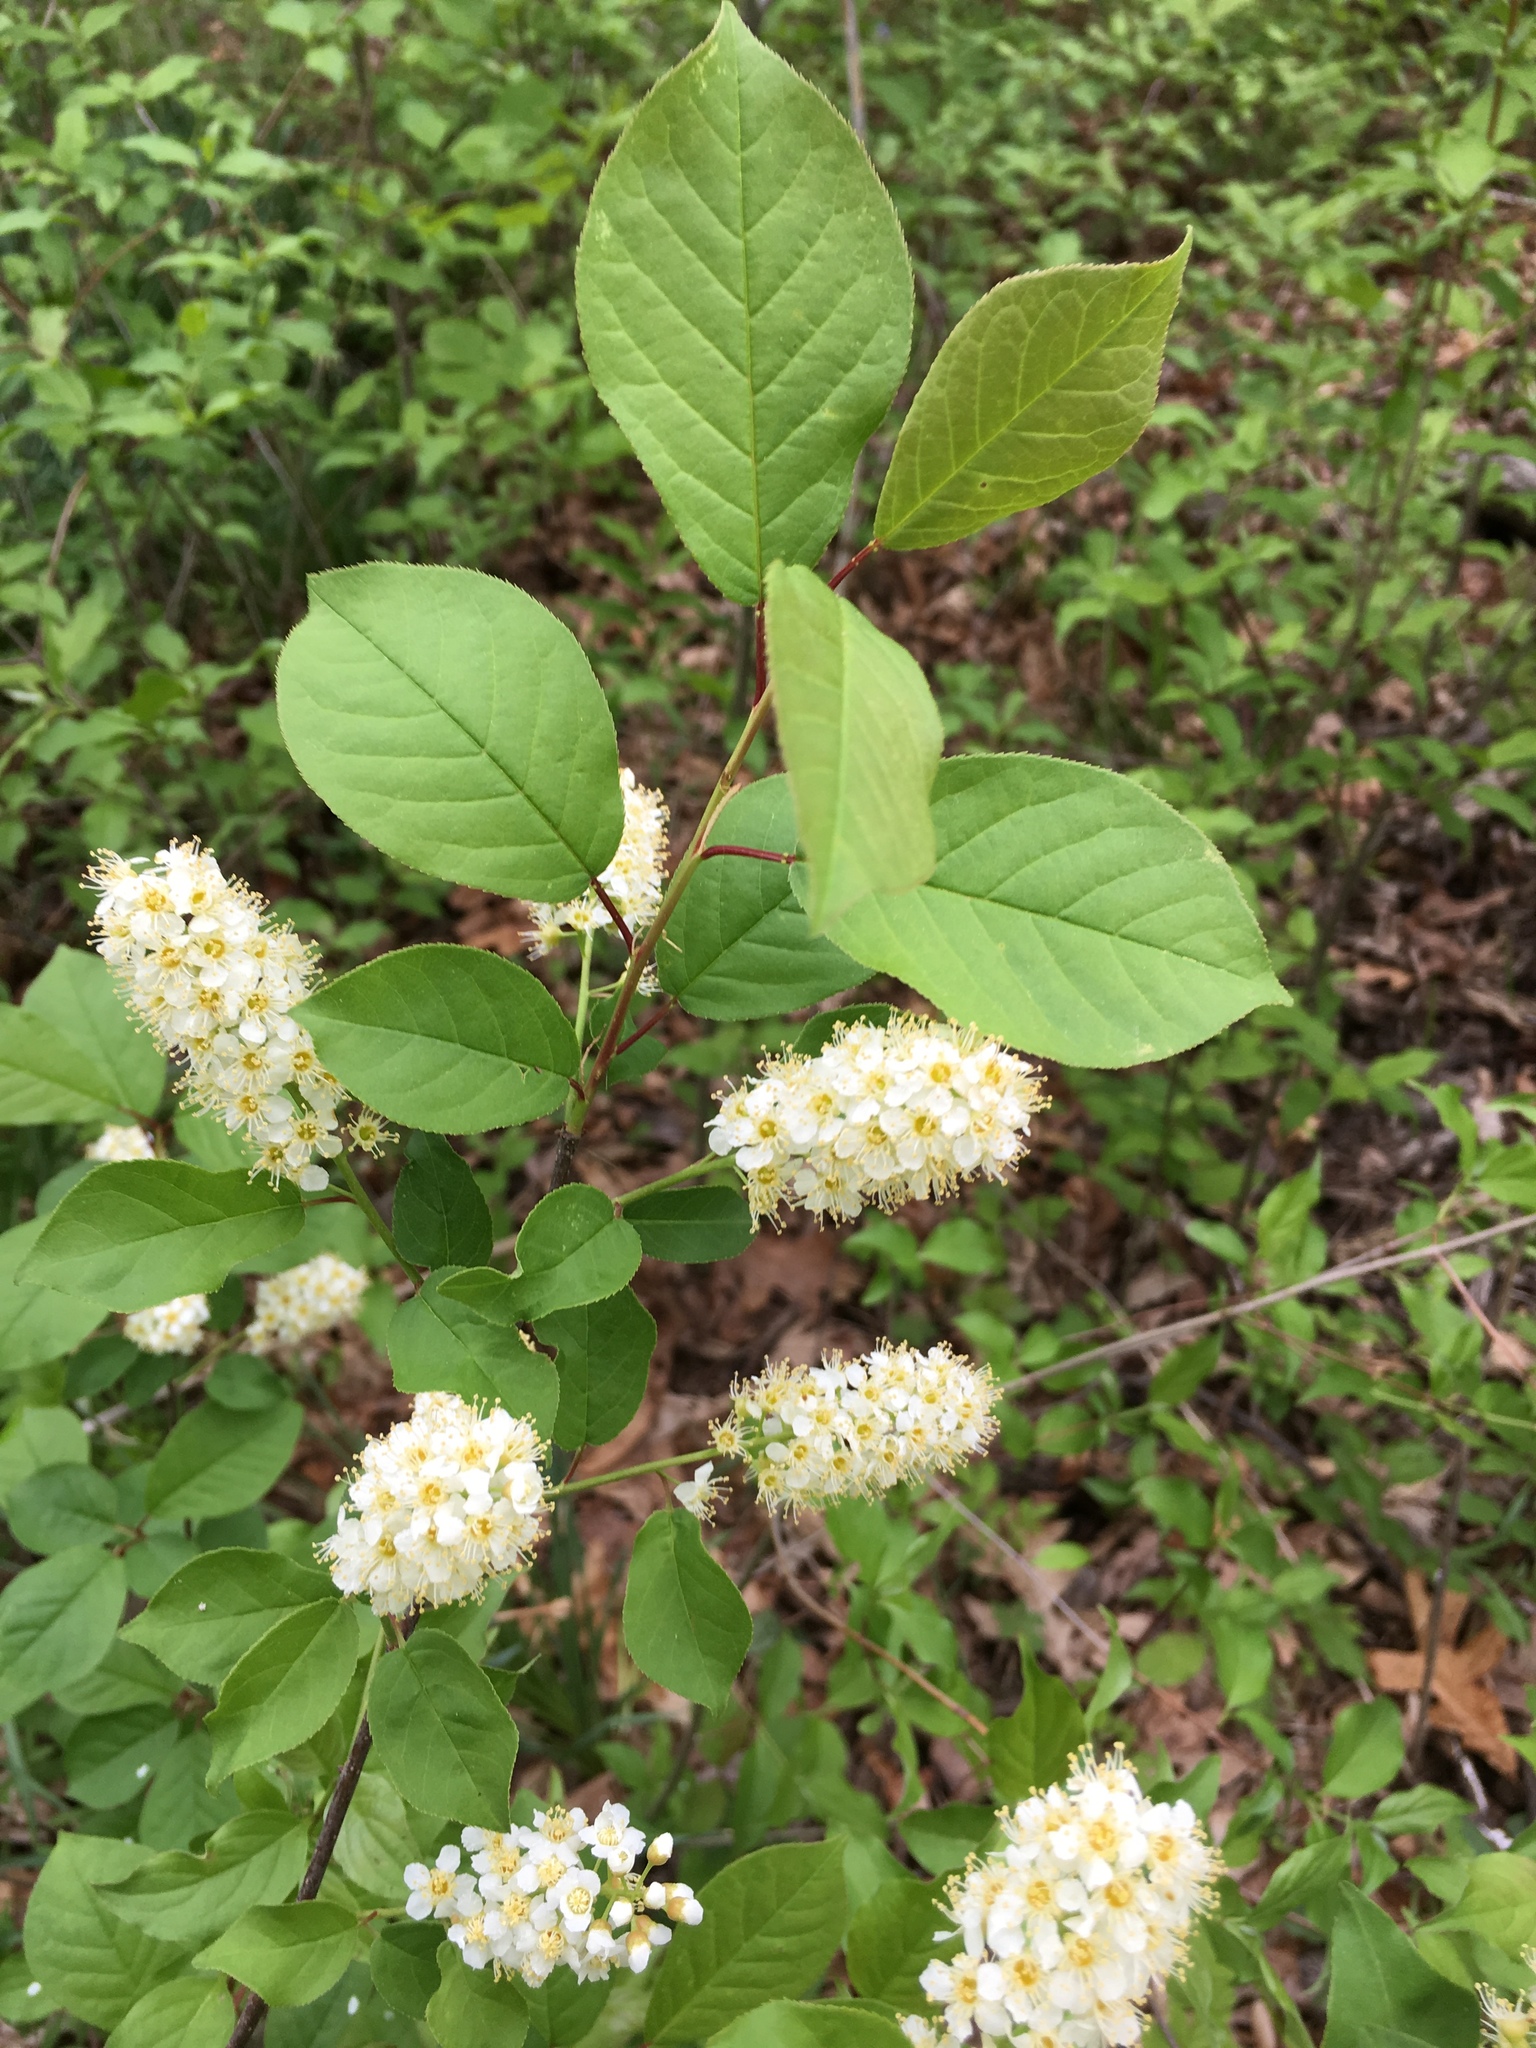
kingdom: Plantae
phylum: Tracheophyta
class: Magnoliopsida
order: Rosales
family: Rosaceae
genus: Prunus
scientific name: Prunus virginiana
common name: Chokecherry
